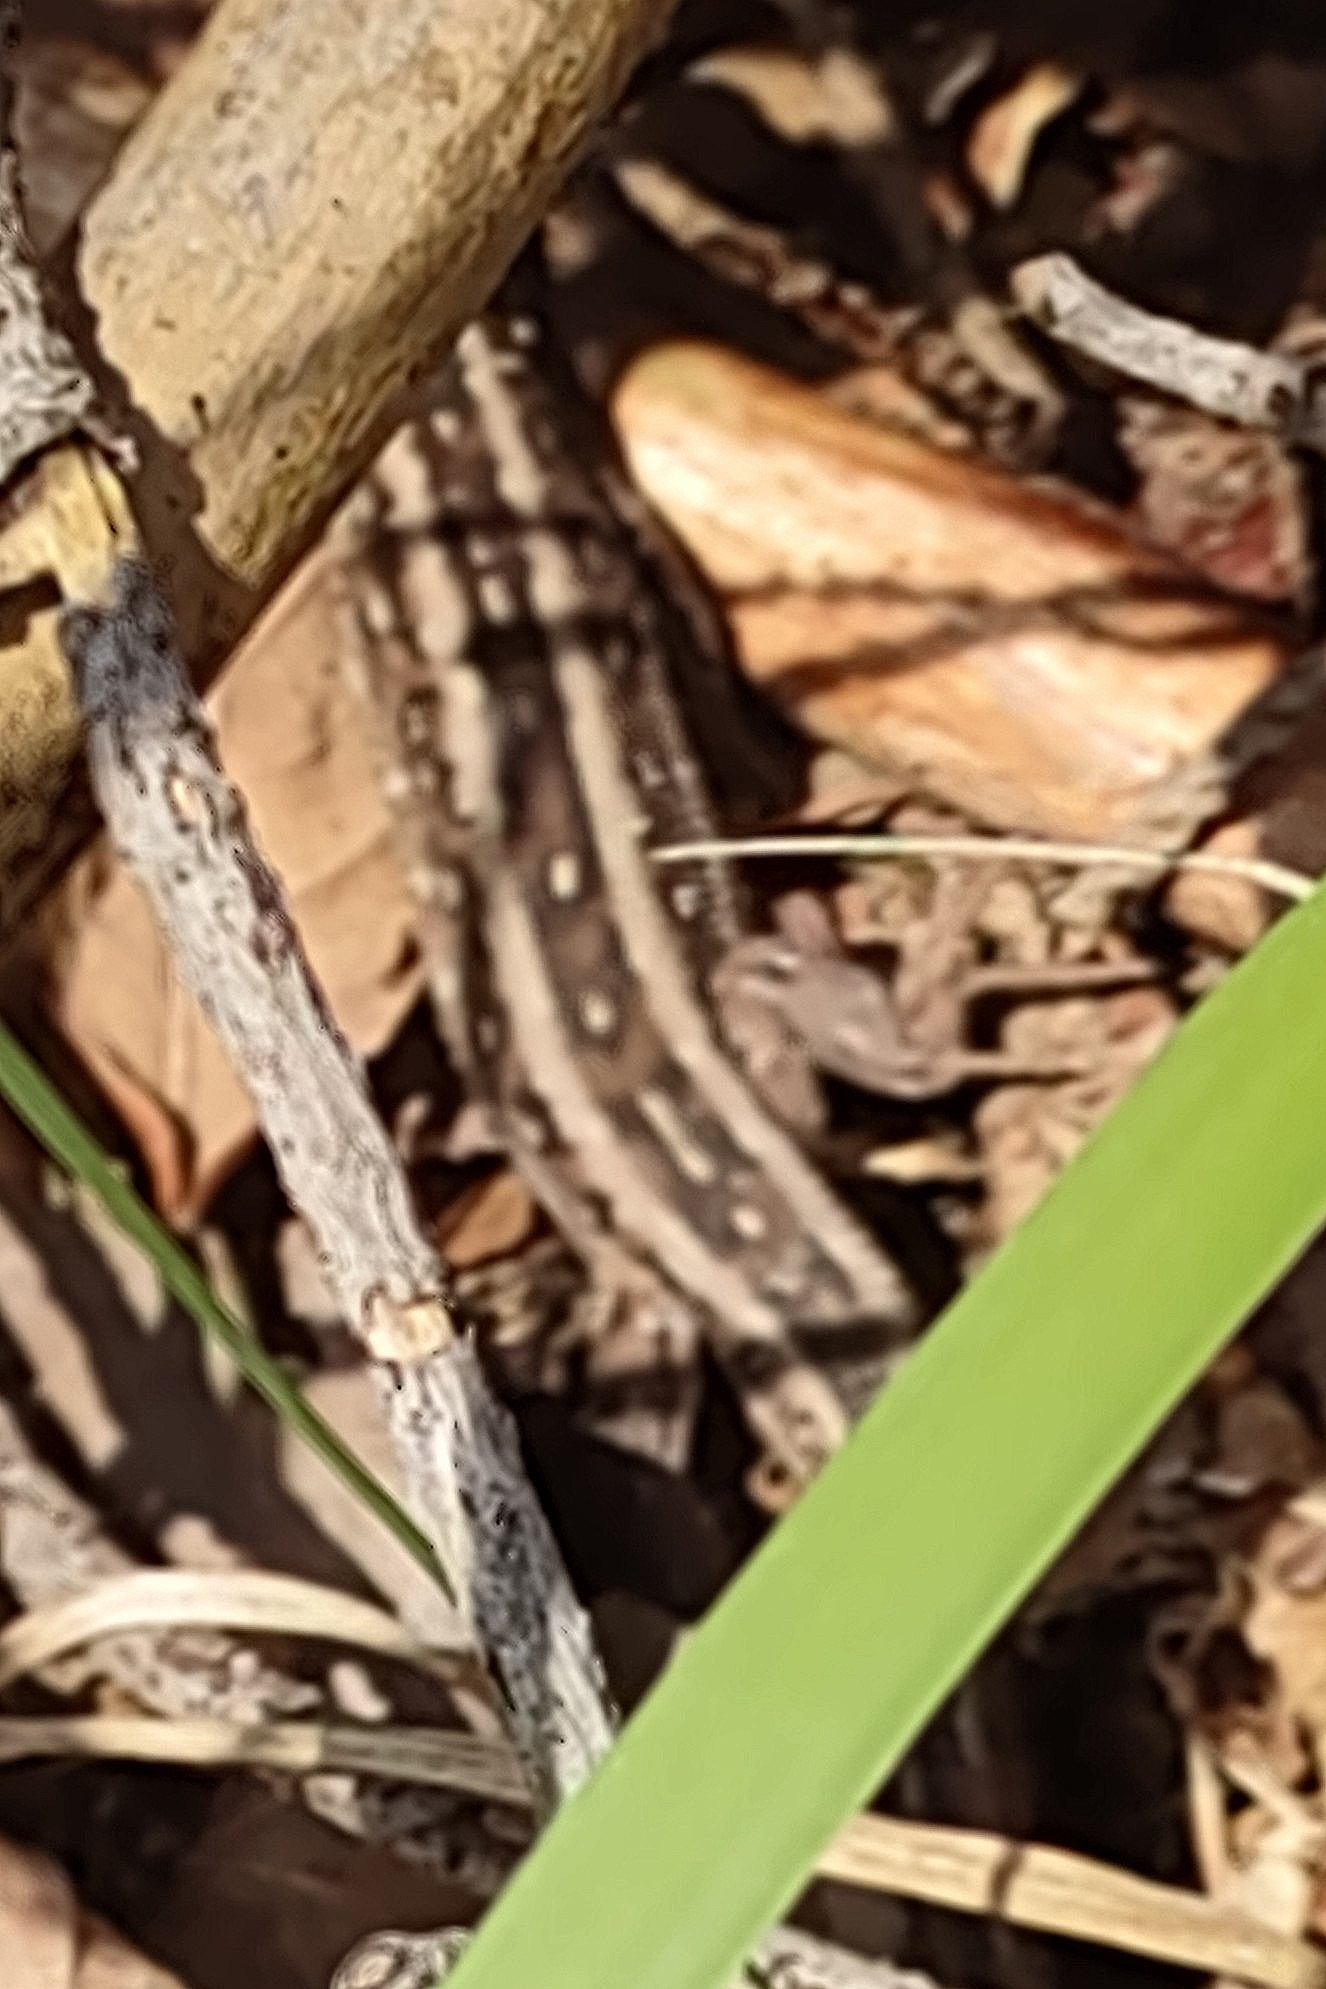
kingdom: Animalia
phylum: Chordata
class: Squamata
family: Lacertidae
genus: Lacerta
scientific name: Lacerta agilis
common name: Sand lizard
